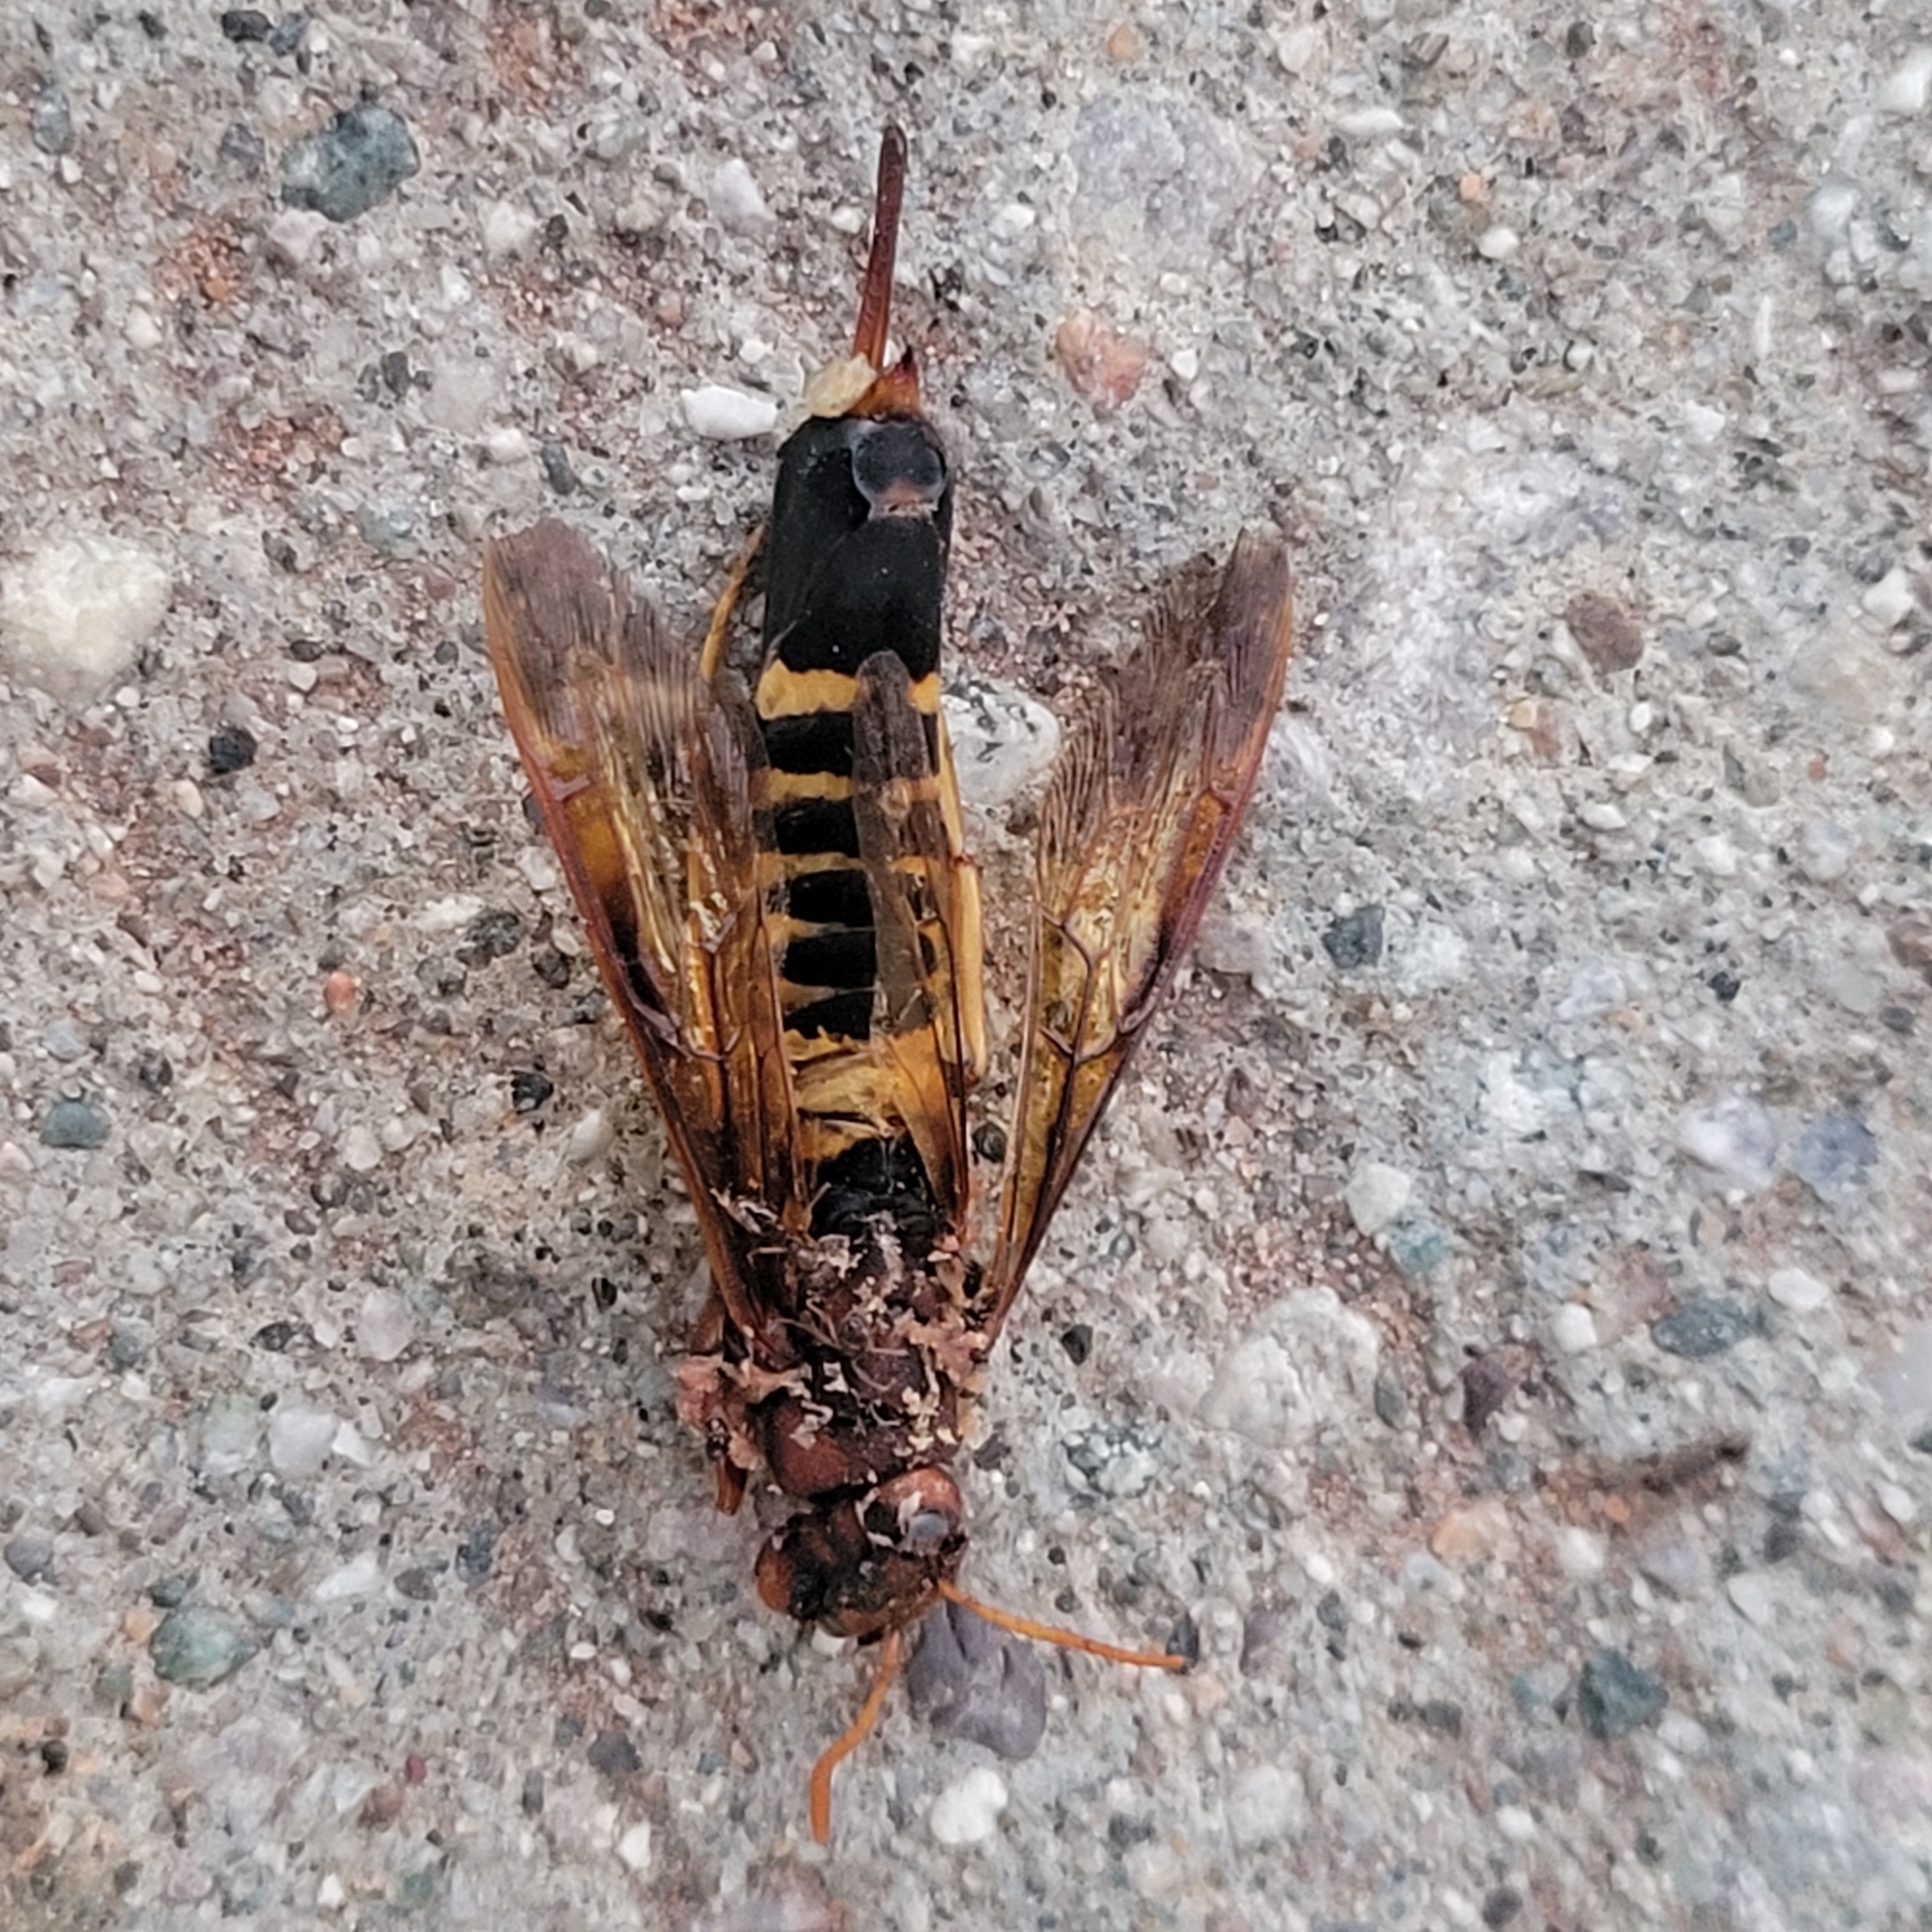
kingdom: Animalia
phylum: Arthropoda
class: Insecta
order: Hymenoptera
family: Siricidae
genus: Tremex
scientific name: Tremex columba
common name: Wasp
